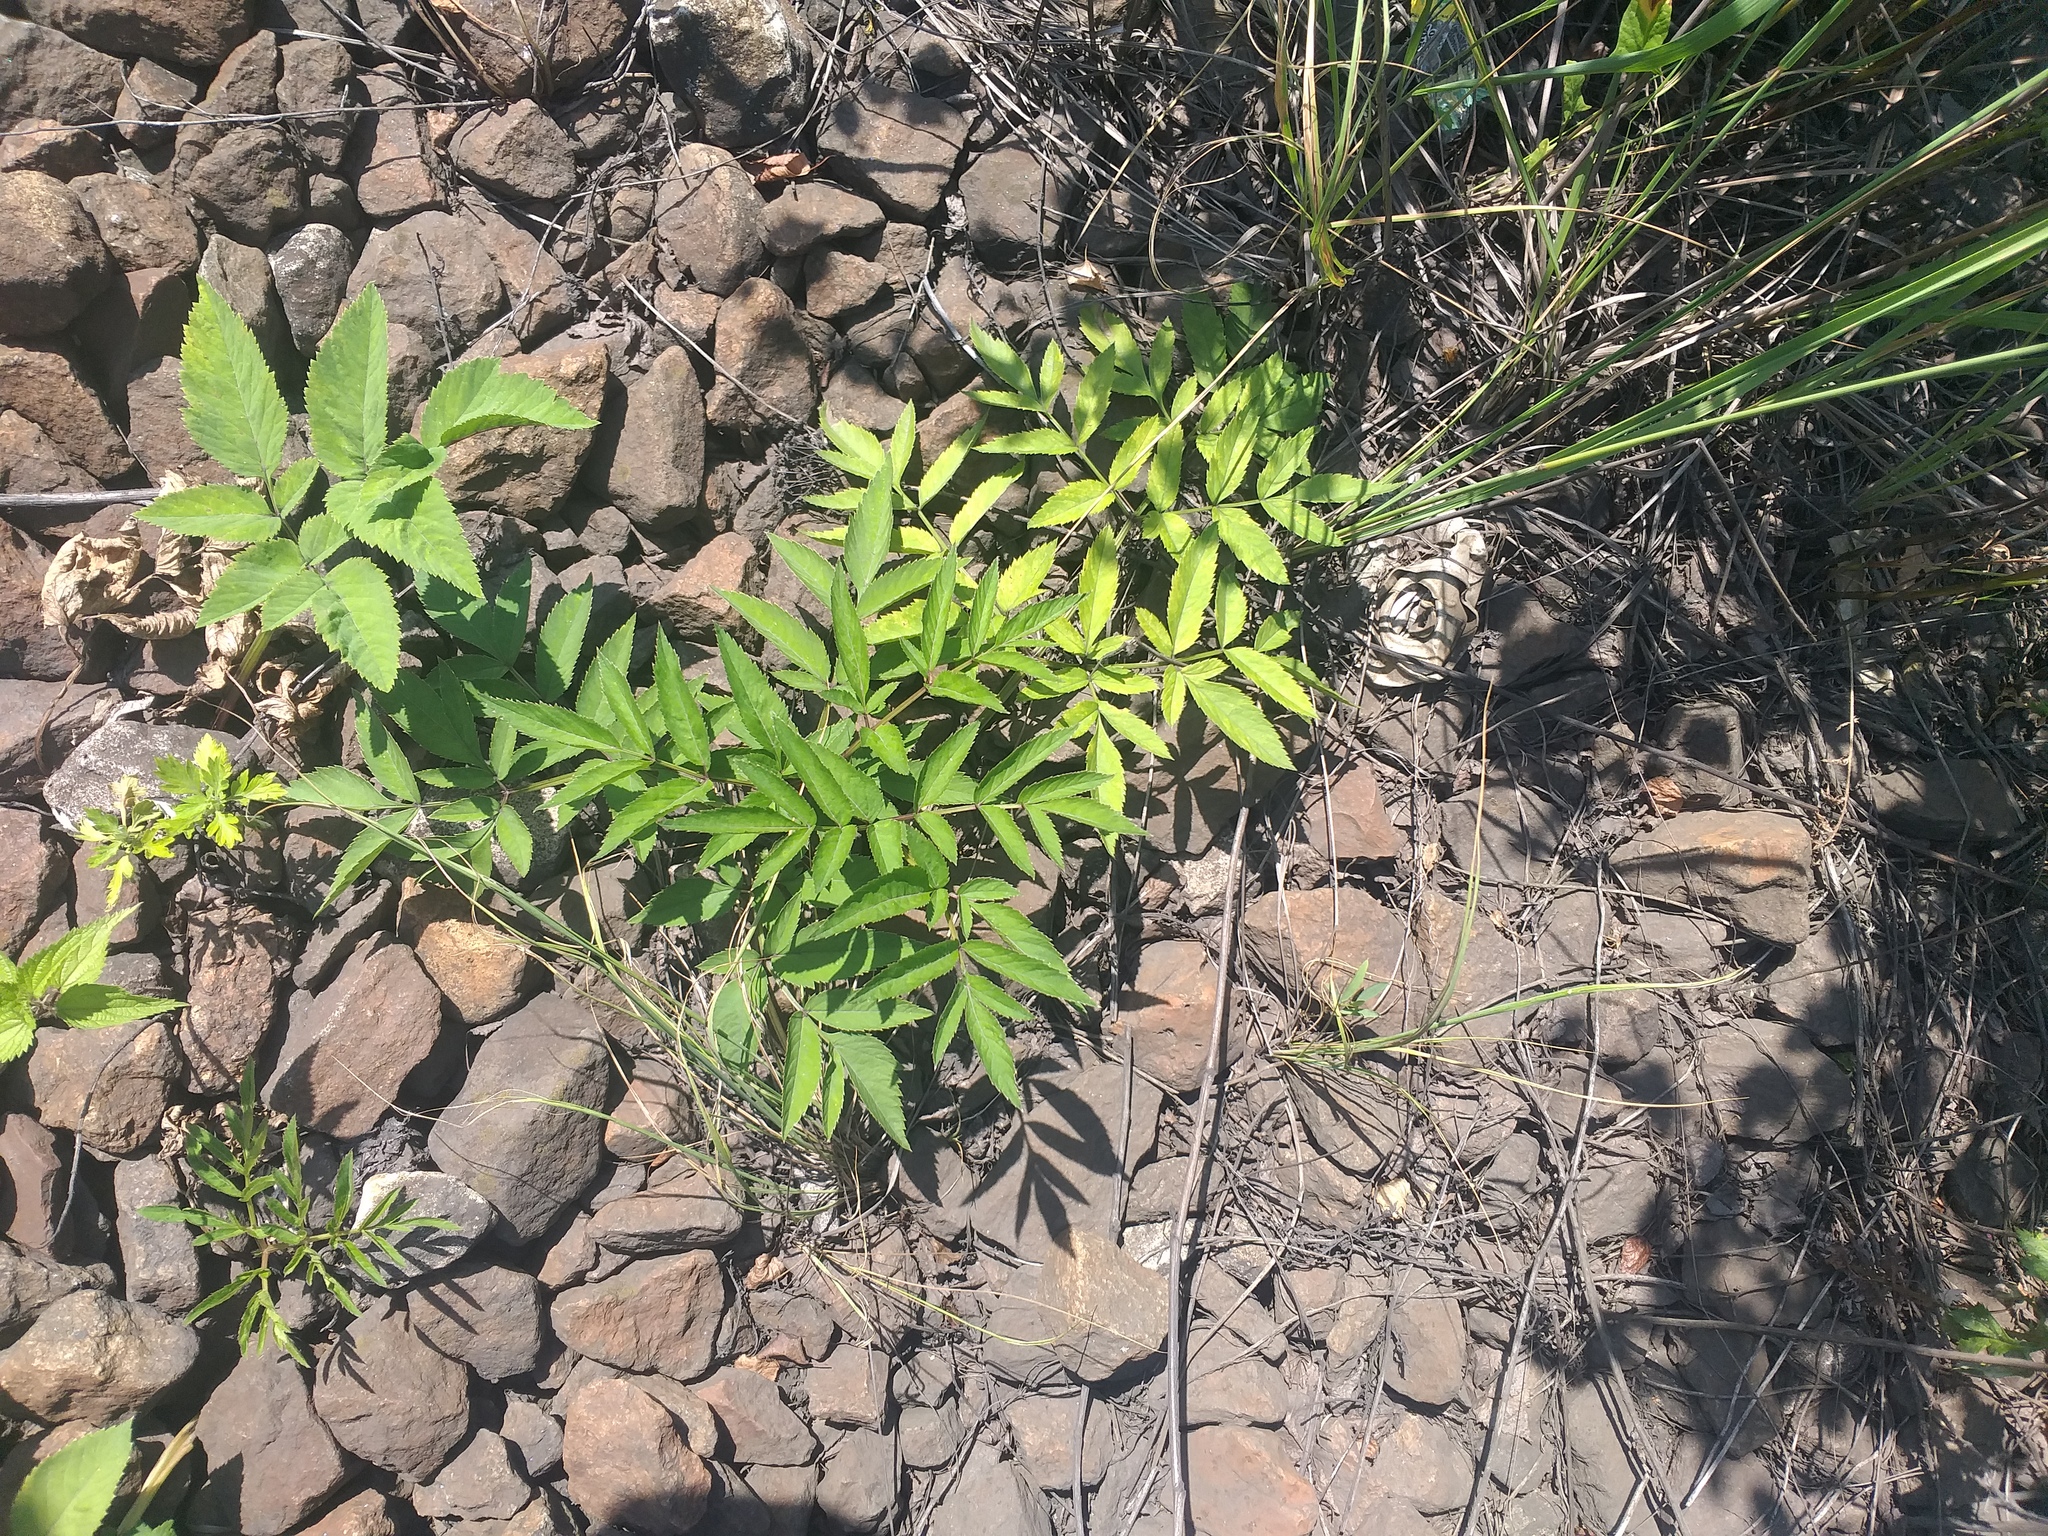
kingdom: Plantae
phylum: Tracheophyta
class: Magnoliopsida
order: Apiales
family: Apiaceae
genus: Angelica
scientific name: Angelica sylvestris
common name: Wild angelica
